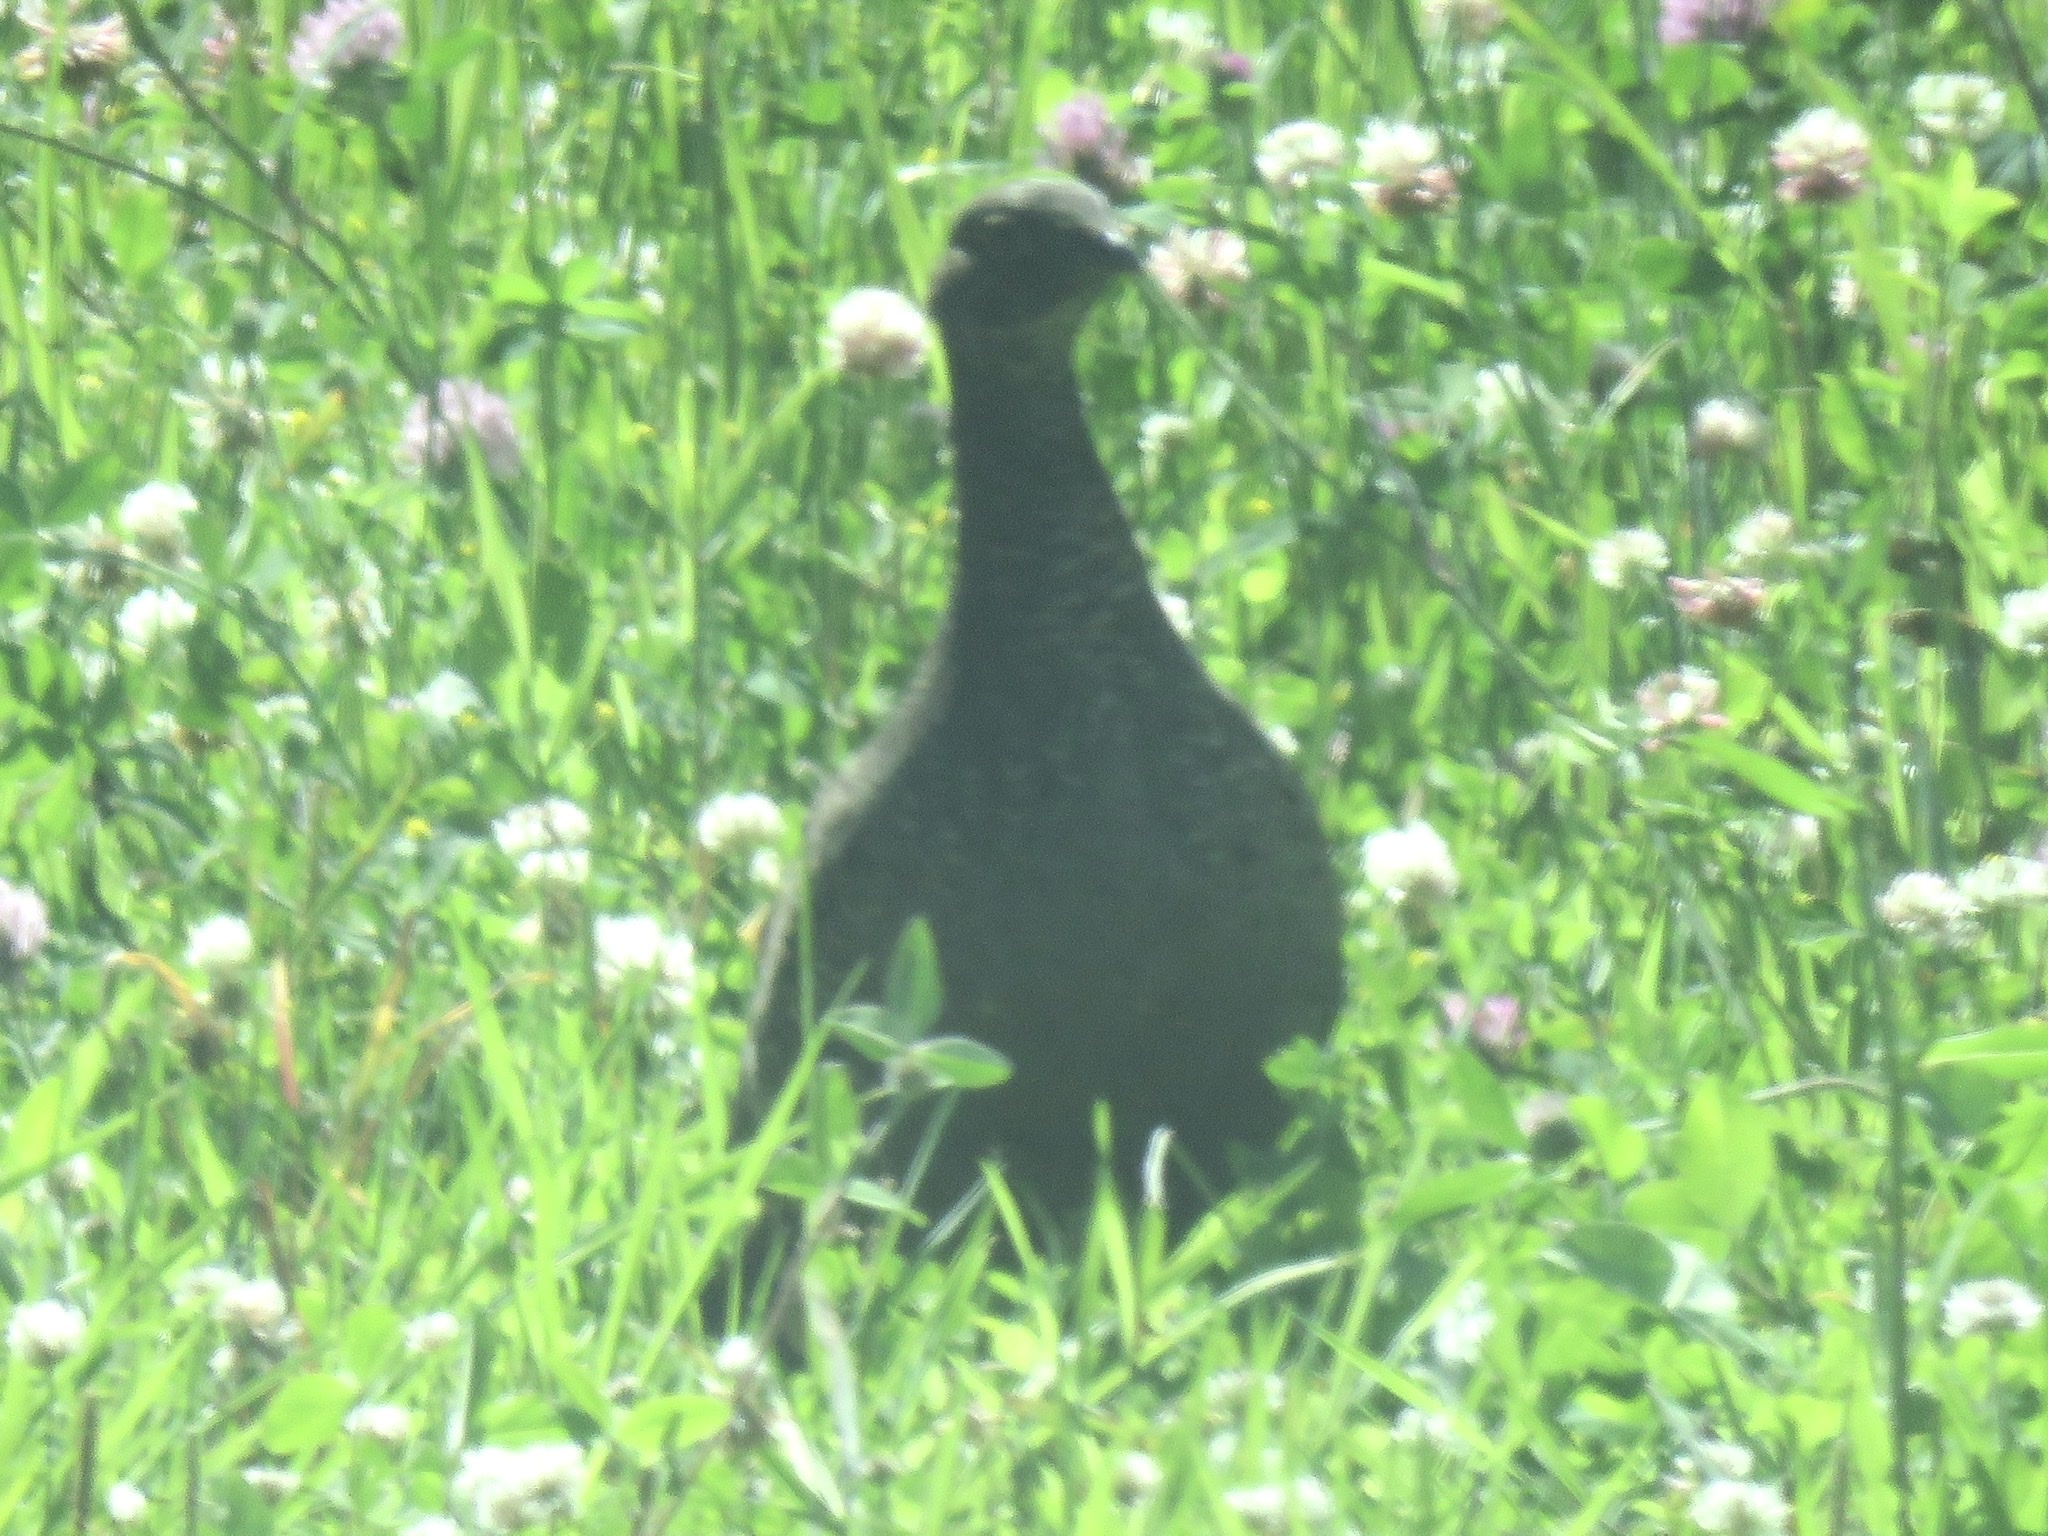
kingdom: Animalia
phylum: Chordata
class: Aves
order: Galliformes
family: Phasianidae
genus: Dendragapus
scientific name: Dendragapus obscurus
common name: Dusky grouse
